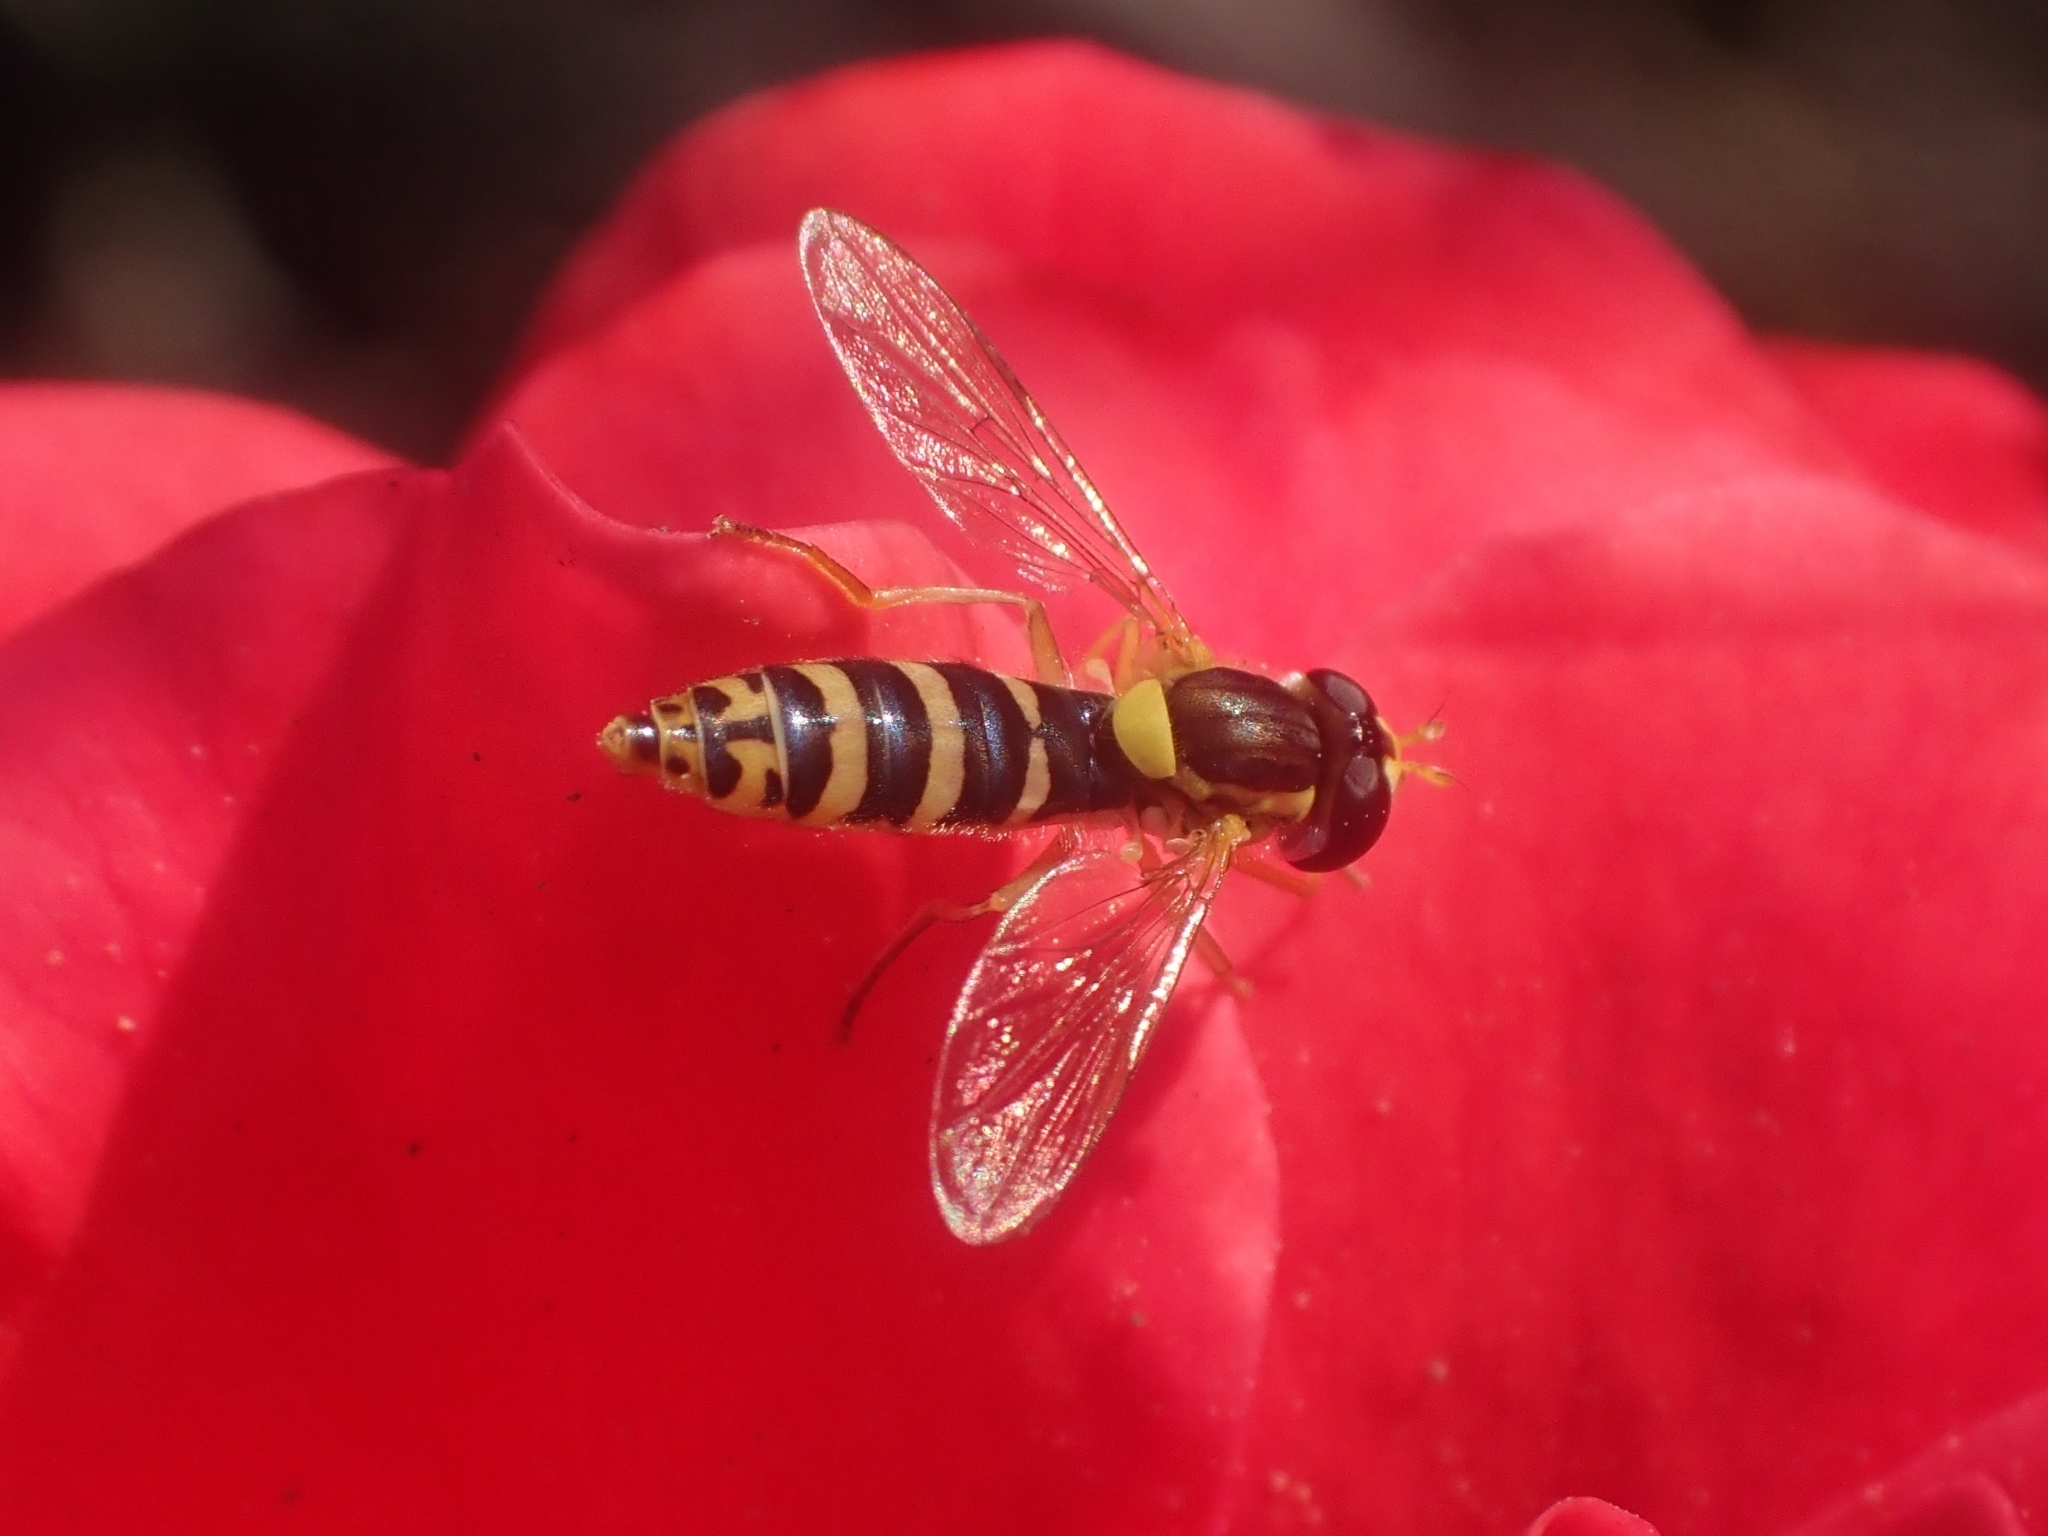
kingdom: Animalia
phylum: Arthropoda
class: Insecta
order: Diptera
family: Syrphidae
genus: Sphaerophoria
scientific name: Sphaerophoria
